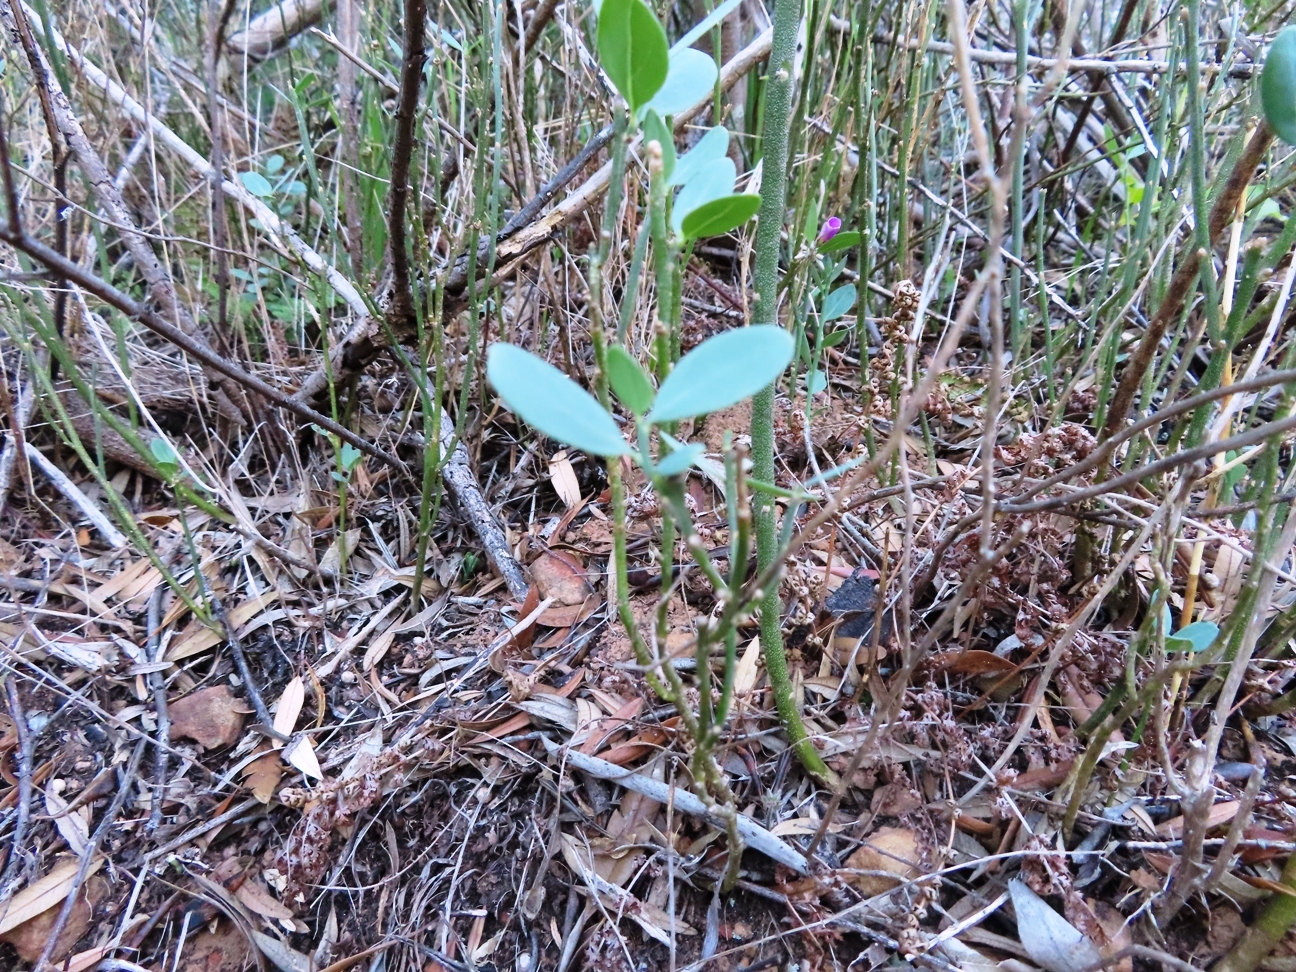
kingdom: Plantae
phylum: Tracheophyta
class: Magnoliopsida
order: Solanales
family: Montiniaceae
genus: Montinia
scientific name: Montinia caryophyllacea
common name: Wild clove-bush
